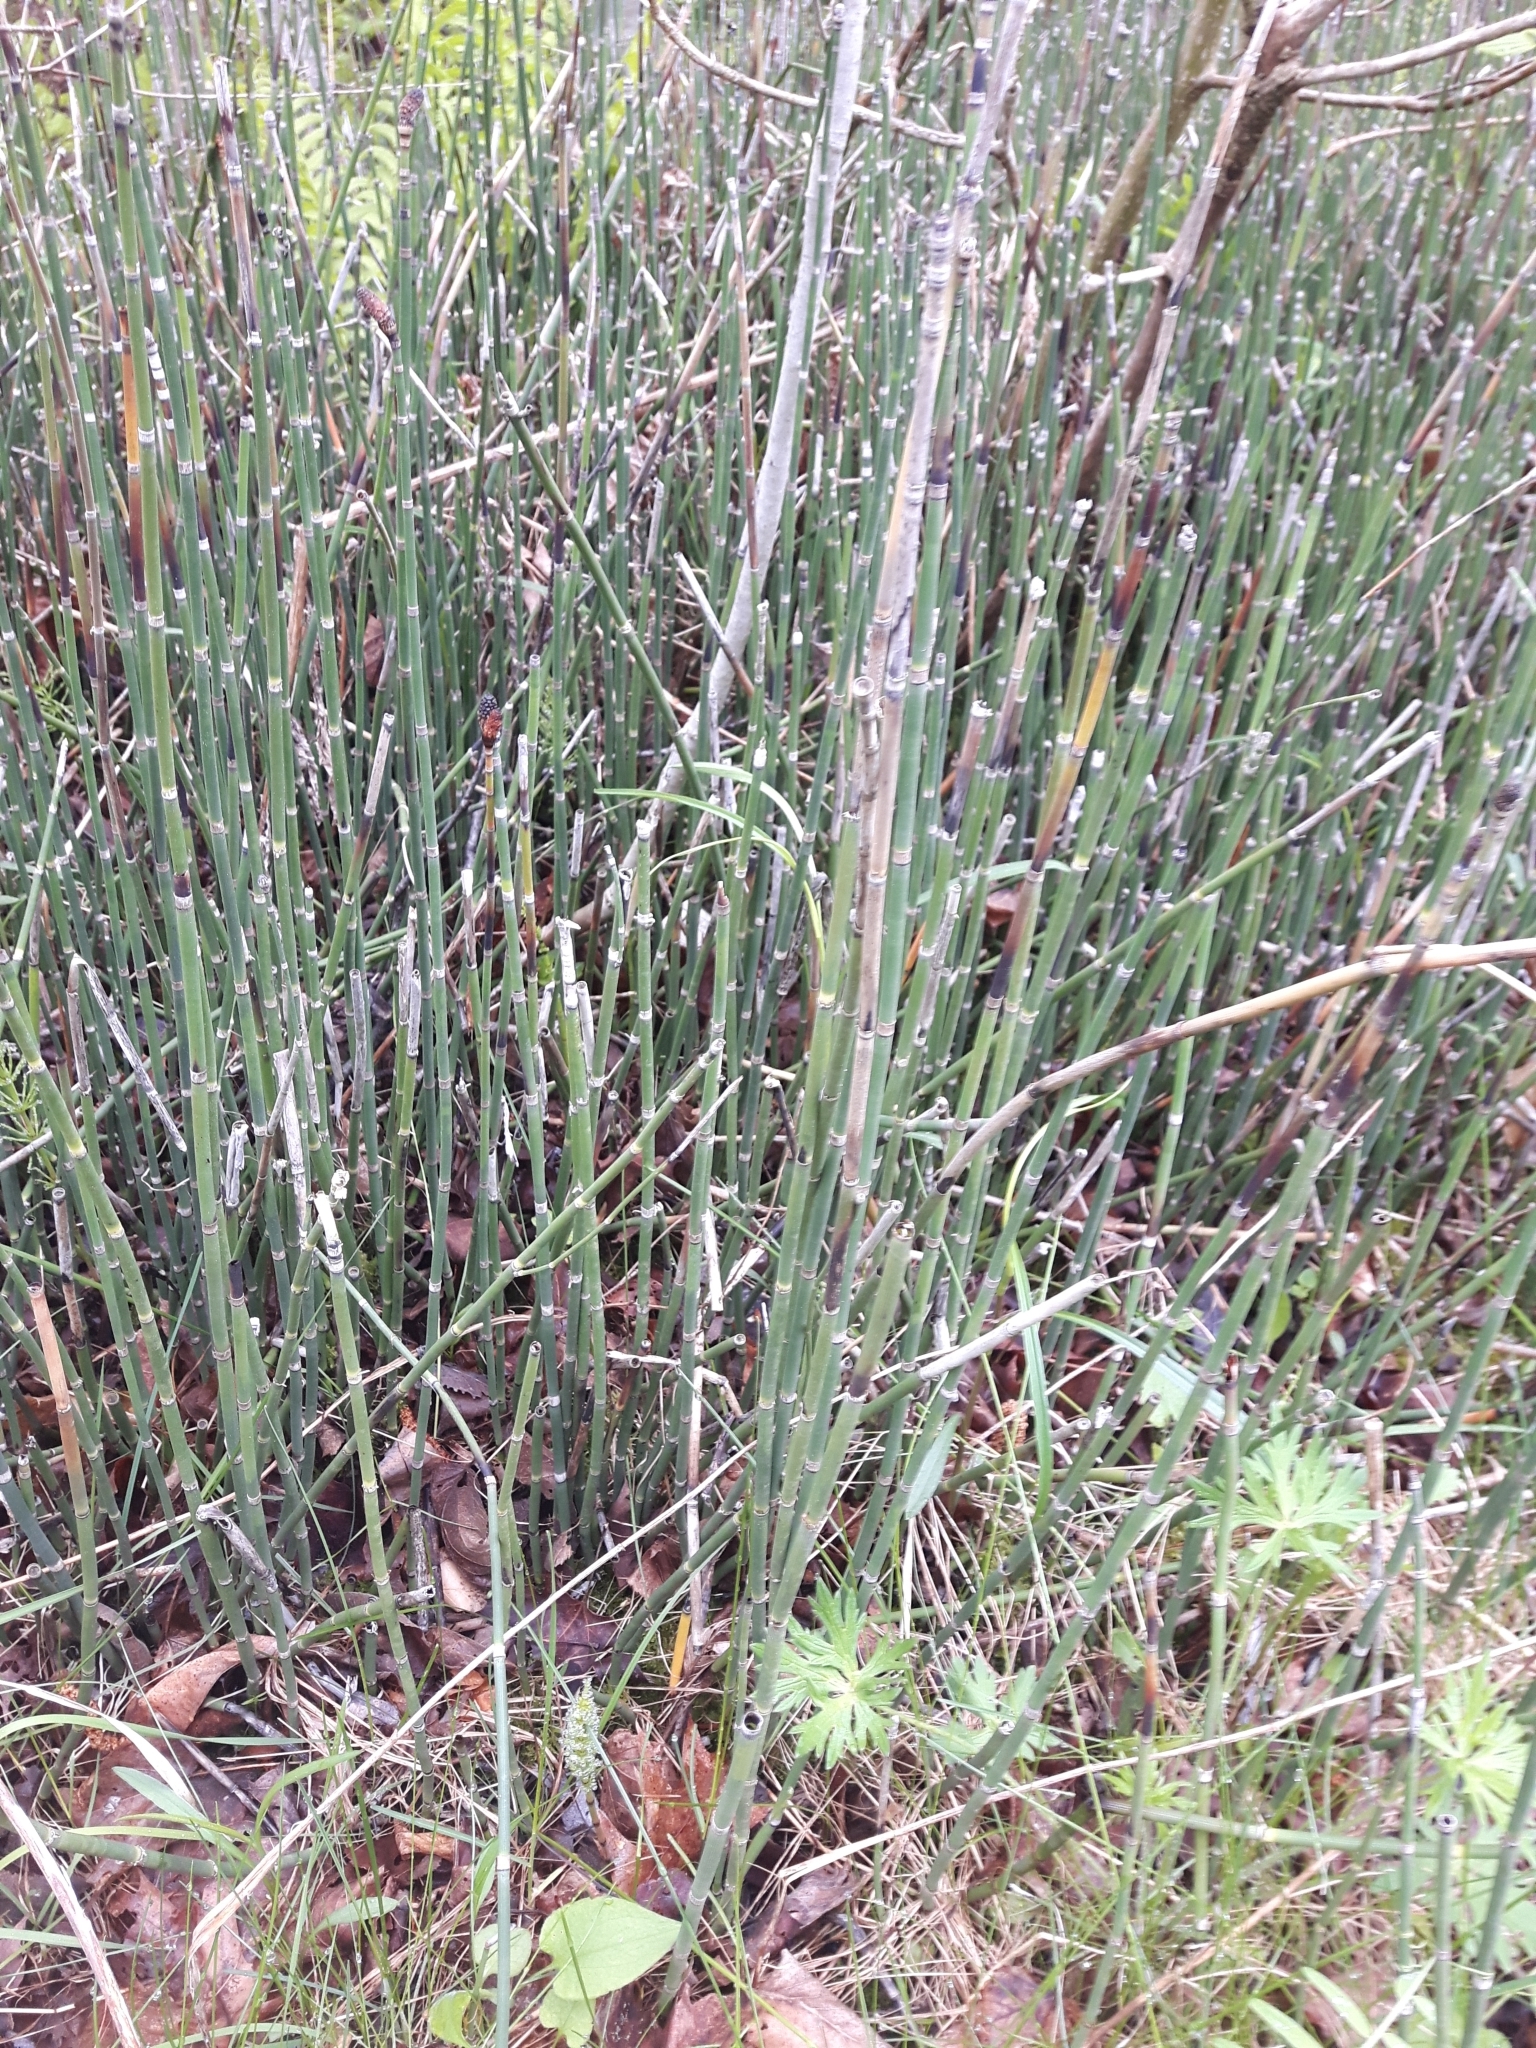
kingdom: Plantae
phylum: Tracheophyta
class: Polypodiopsida
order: Equisetales
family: Equisetaceae
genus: Equisetum
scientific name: Equisetum hyemale
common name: Rough horsetail
